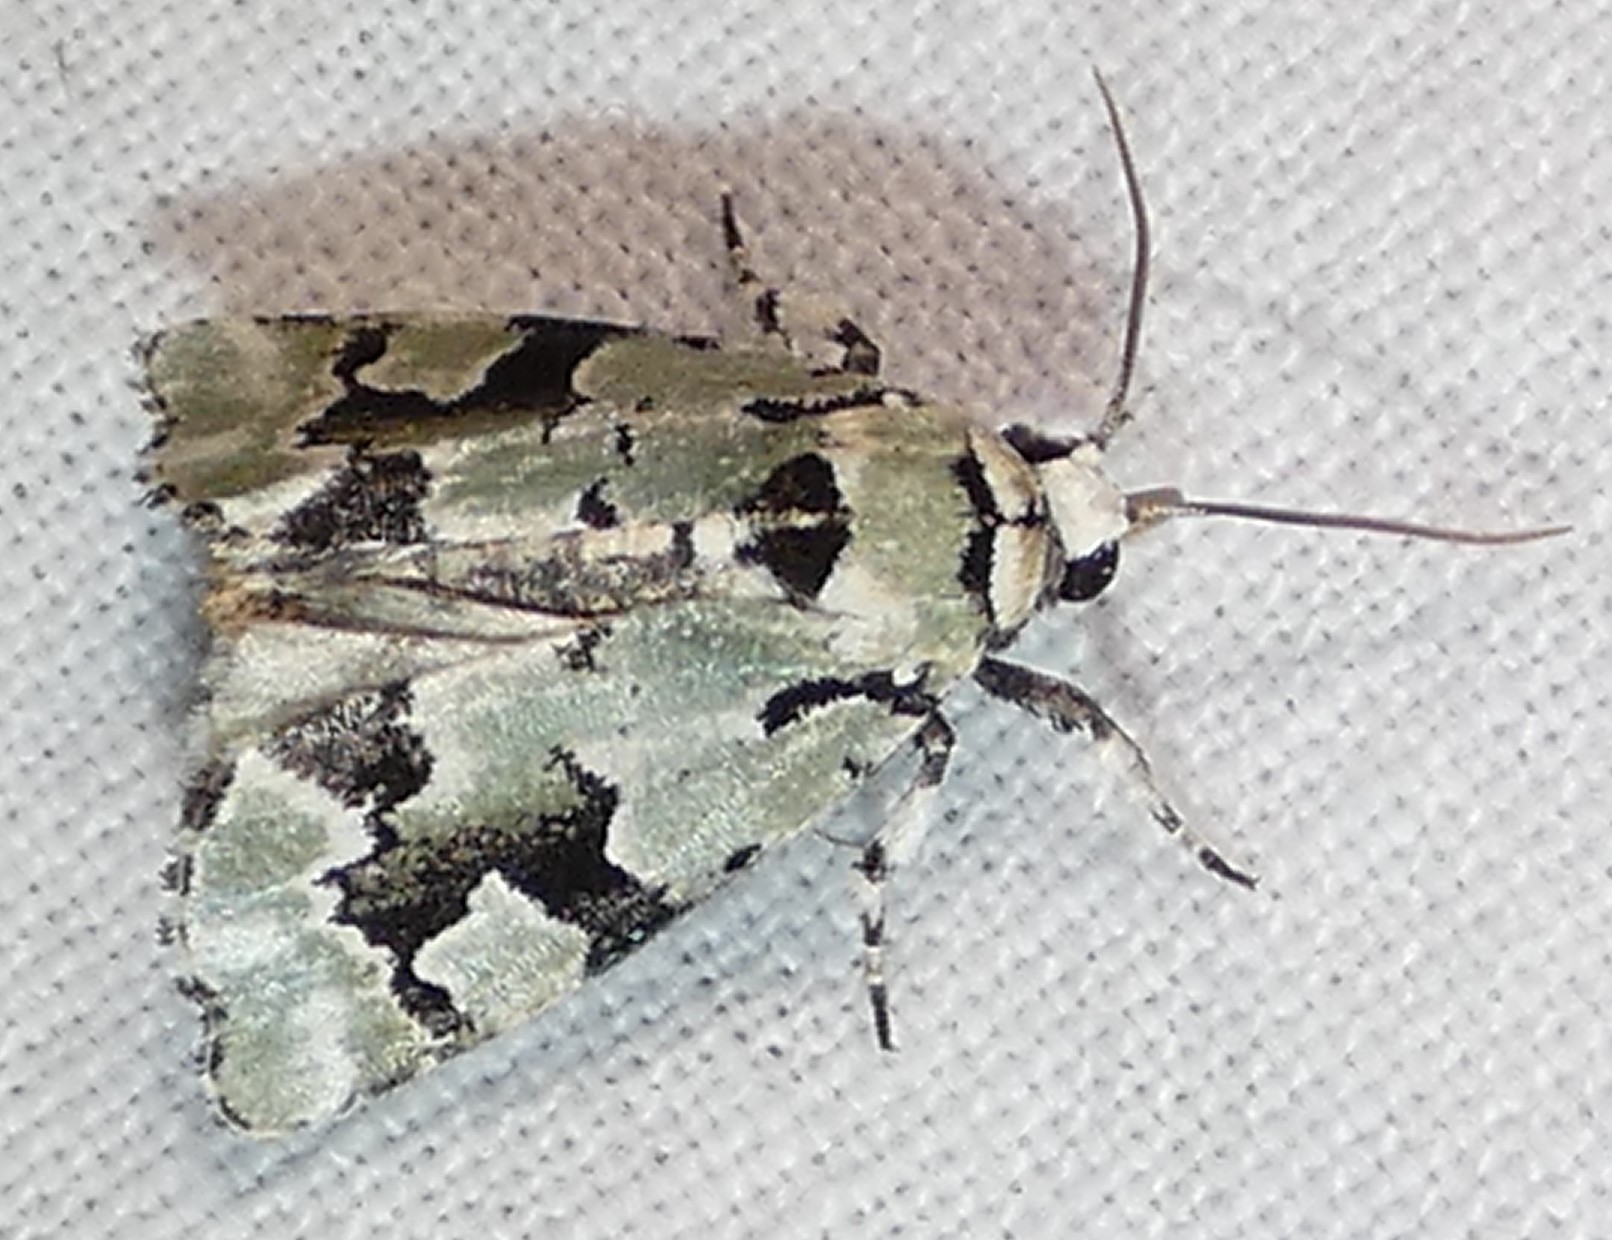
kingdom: Animalia
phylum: Arthropoda
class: Insecta
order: Lepidoptera
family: Noctuidae
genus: Emarginea
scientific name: Emarginea percara
